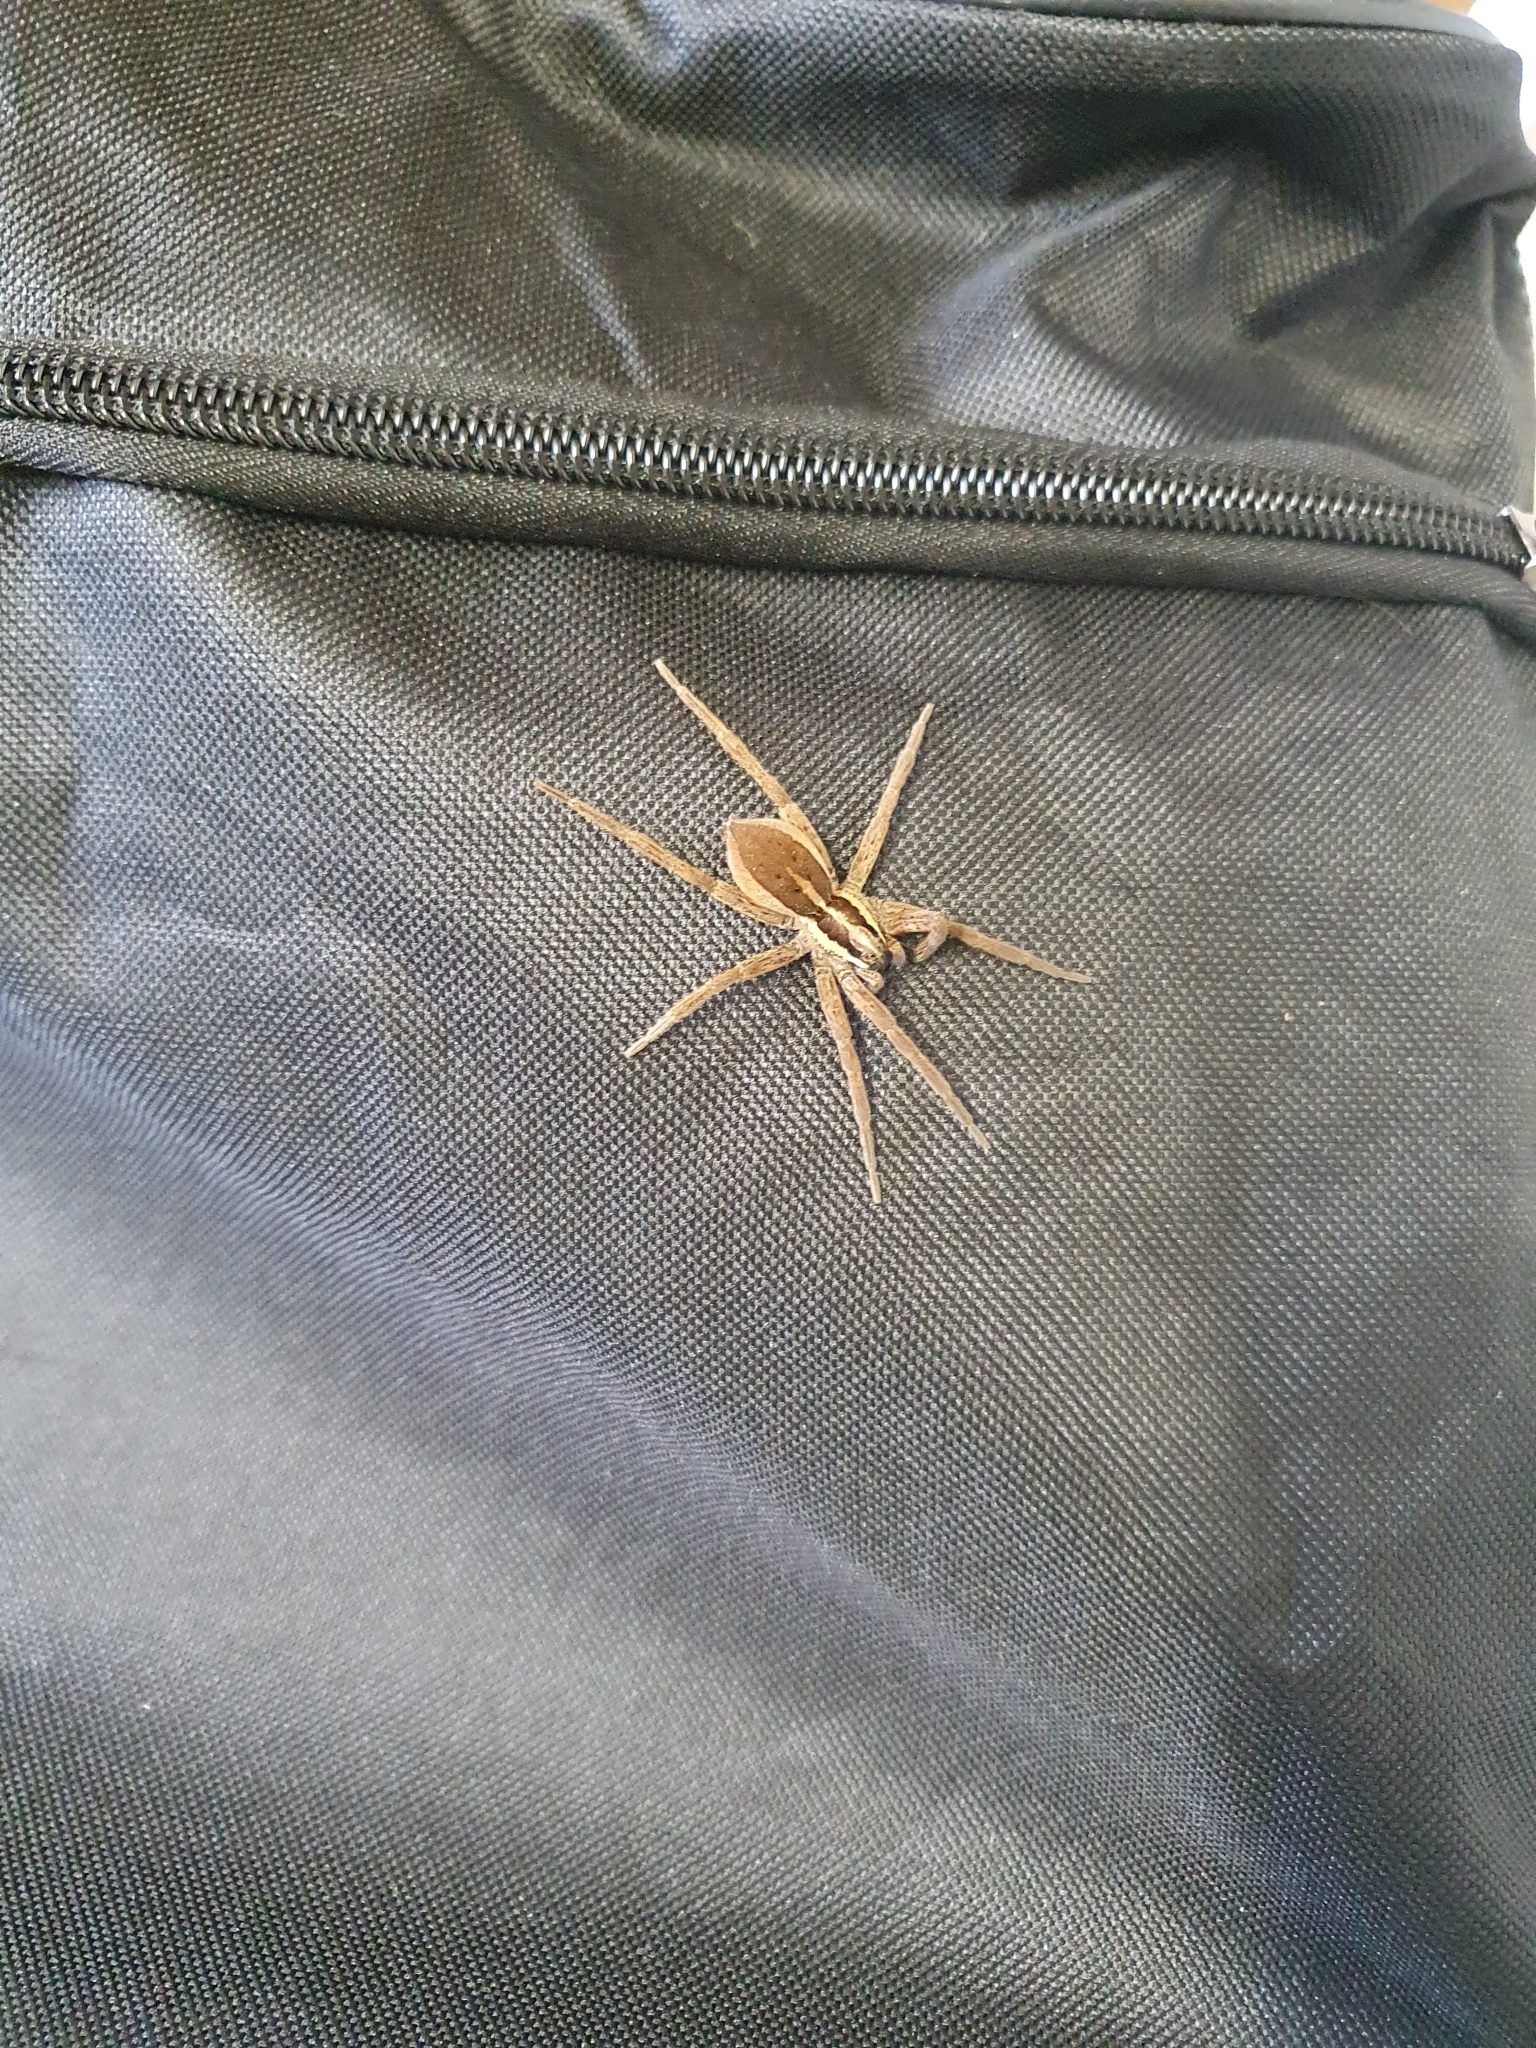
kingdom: Animalia
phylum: Arthropoda
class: Arachnida
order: Araneae
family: Pisauridae
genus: Dolomedes
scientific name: Dolomedes minor
